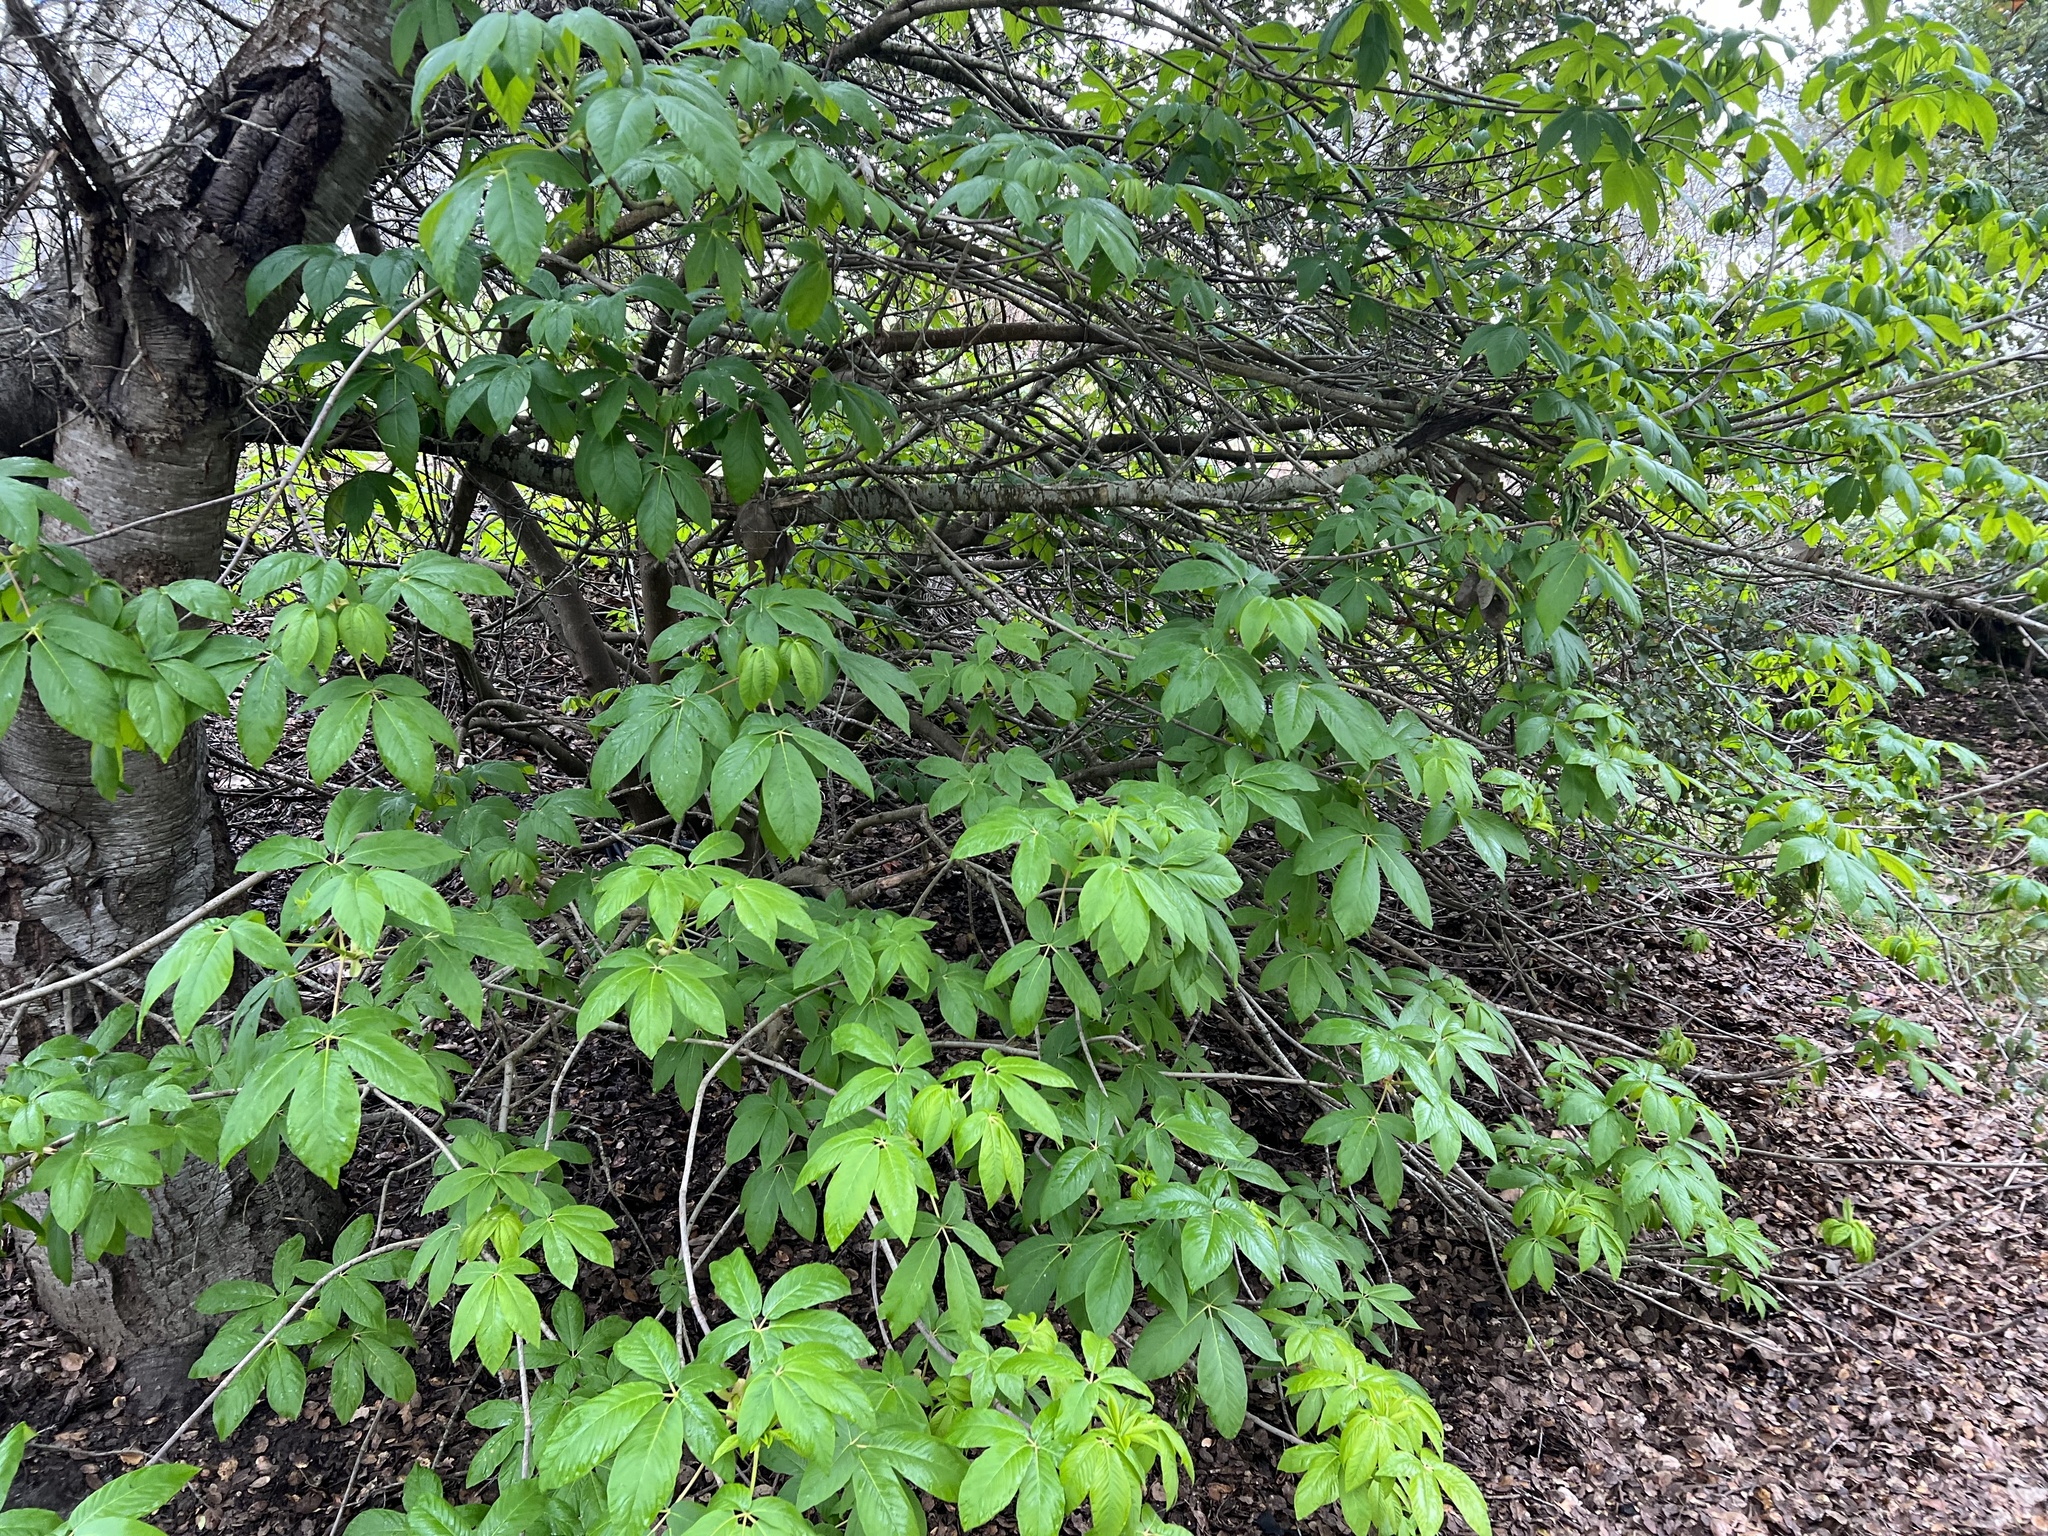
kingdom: Plantae
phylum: Tracheophyta
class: Magnoliopsida
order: Sapindales
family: Sapindaceae
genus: Aesculus
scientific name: Aesculus californica
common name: California buckeye
